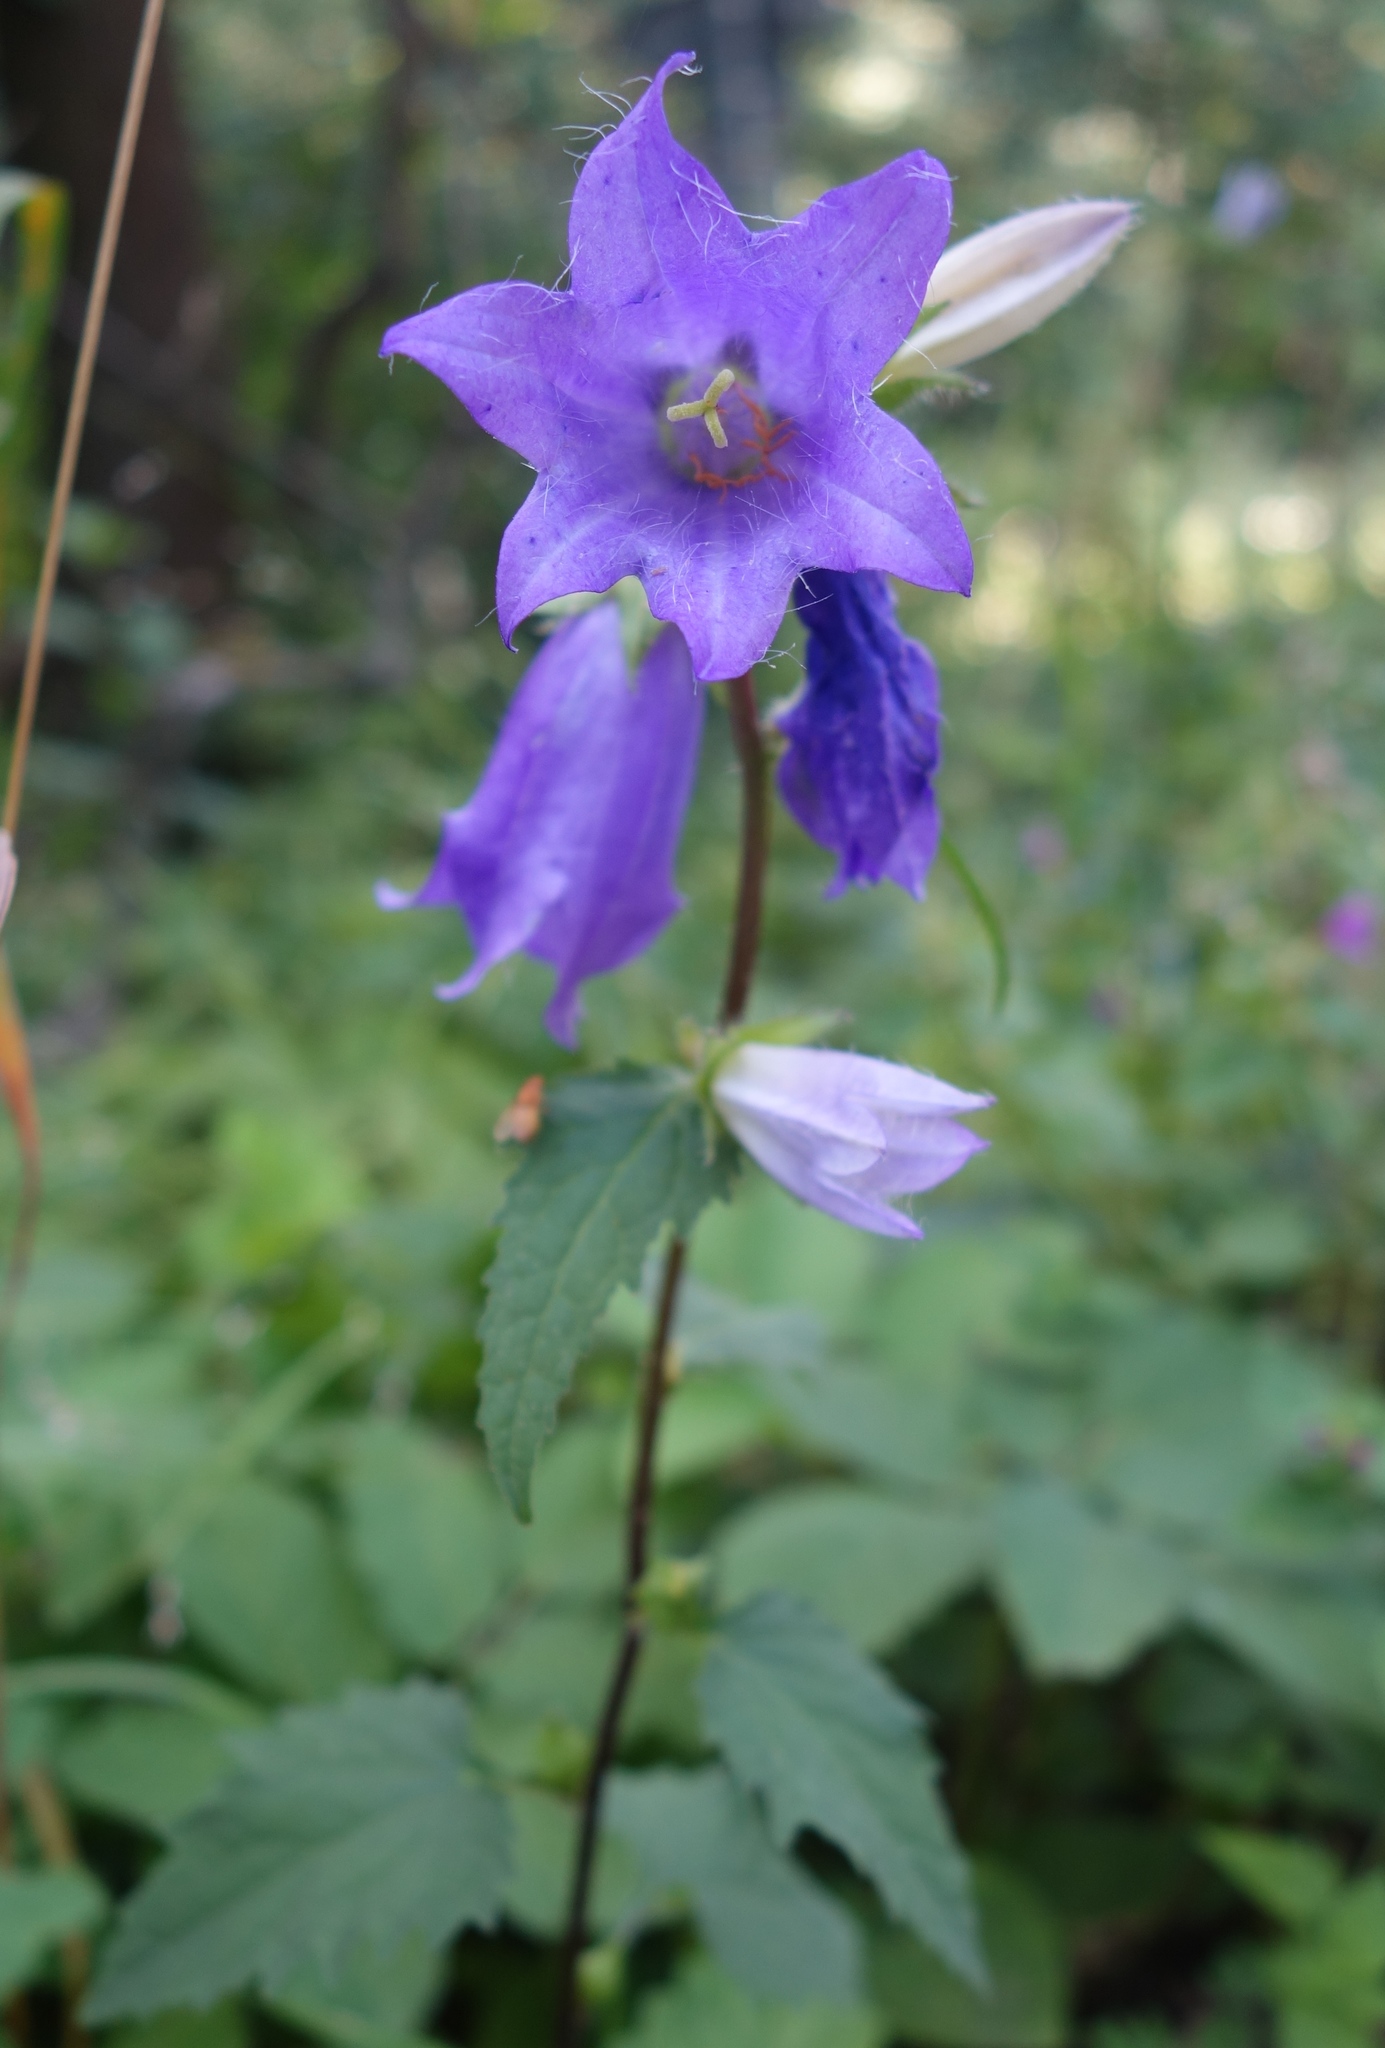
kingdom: Plantae
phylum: Tracheophyta
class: Magnoliopsida
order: Asterales
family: Campanulaceae
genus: Campanula
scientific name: Campanula trachelium
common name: Nettle-leaved bellflower
